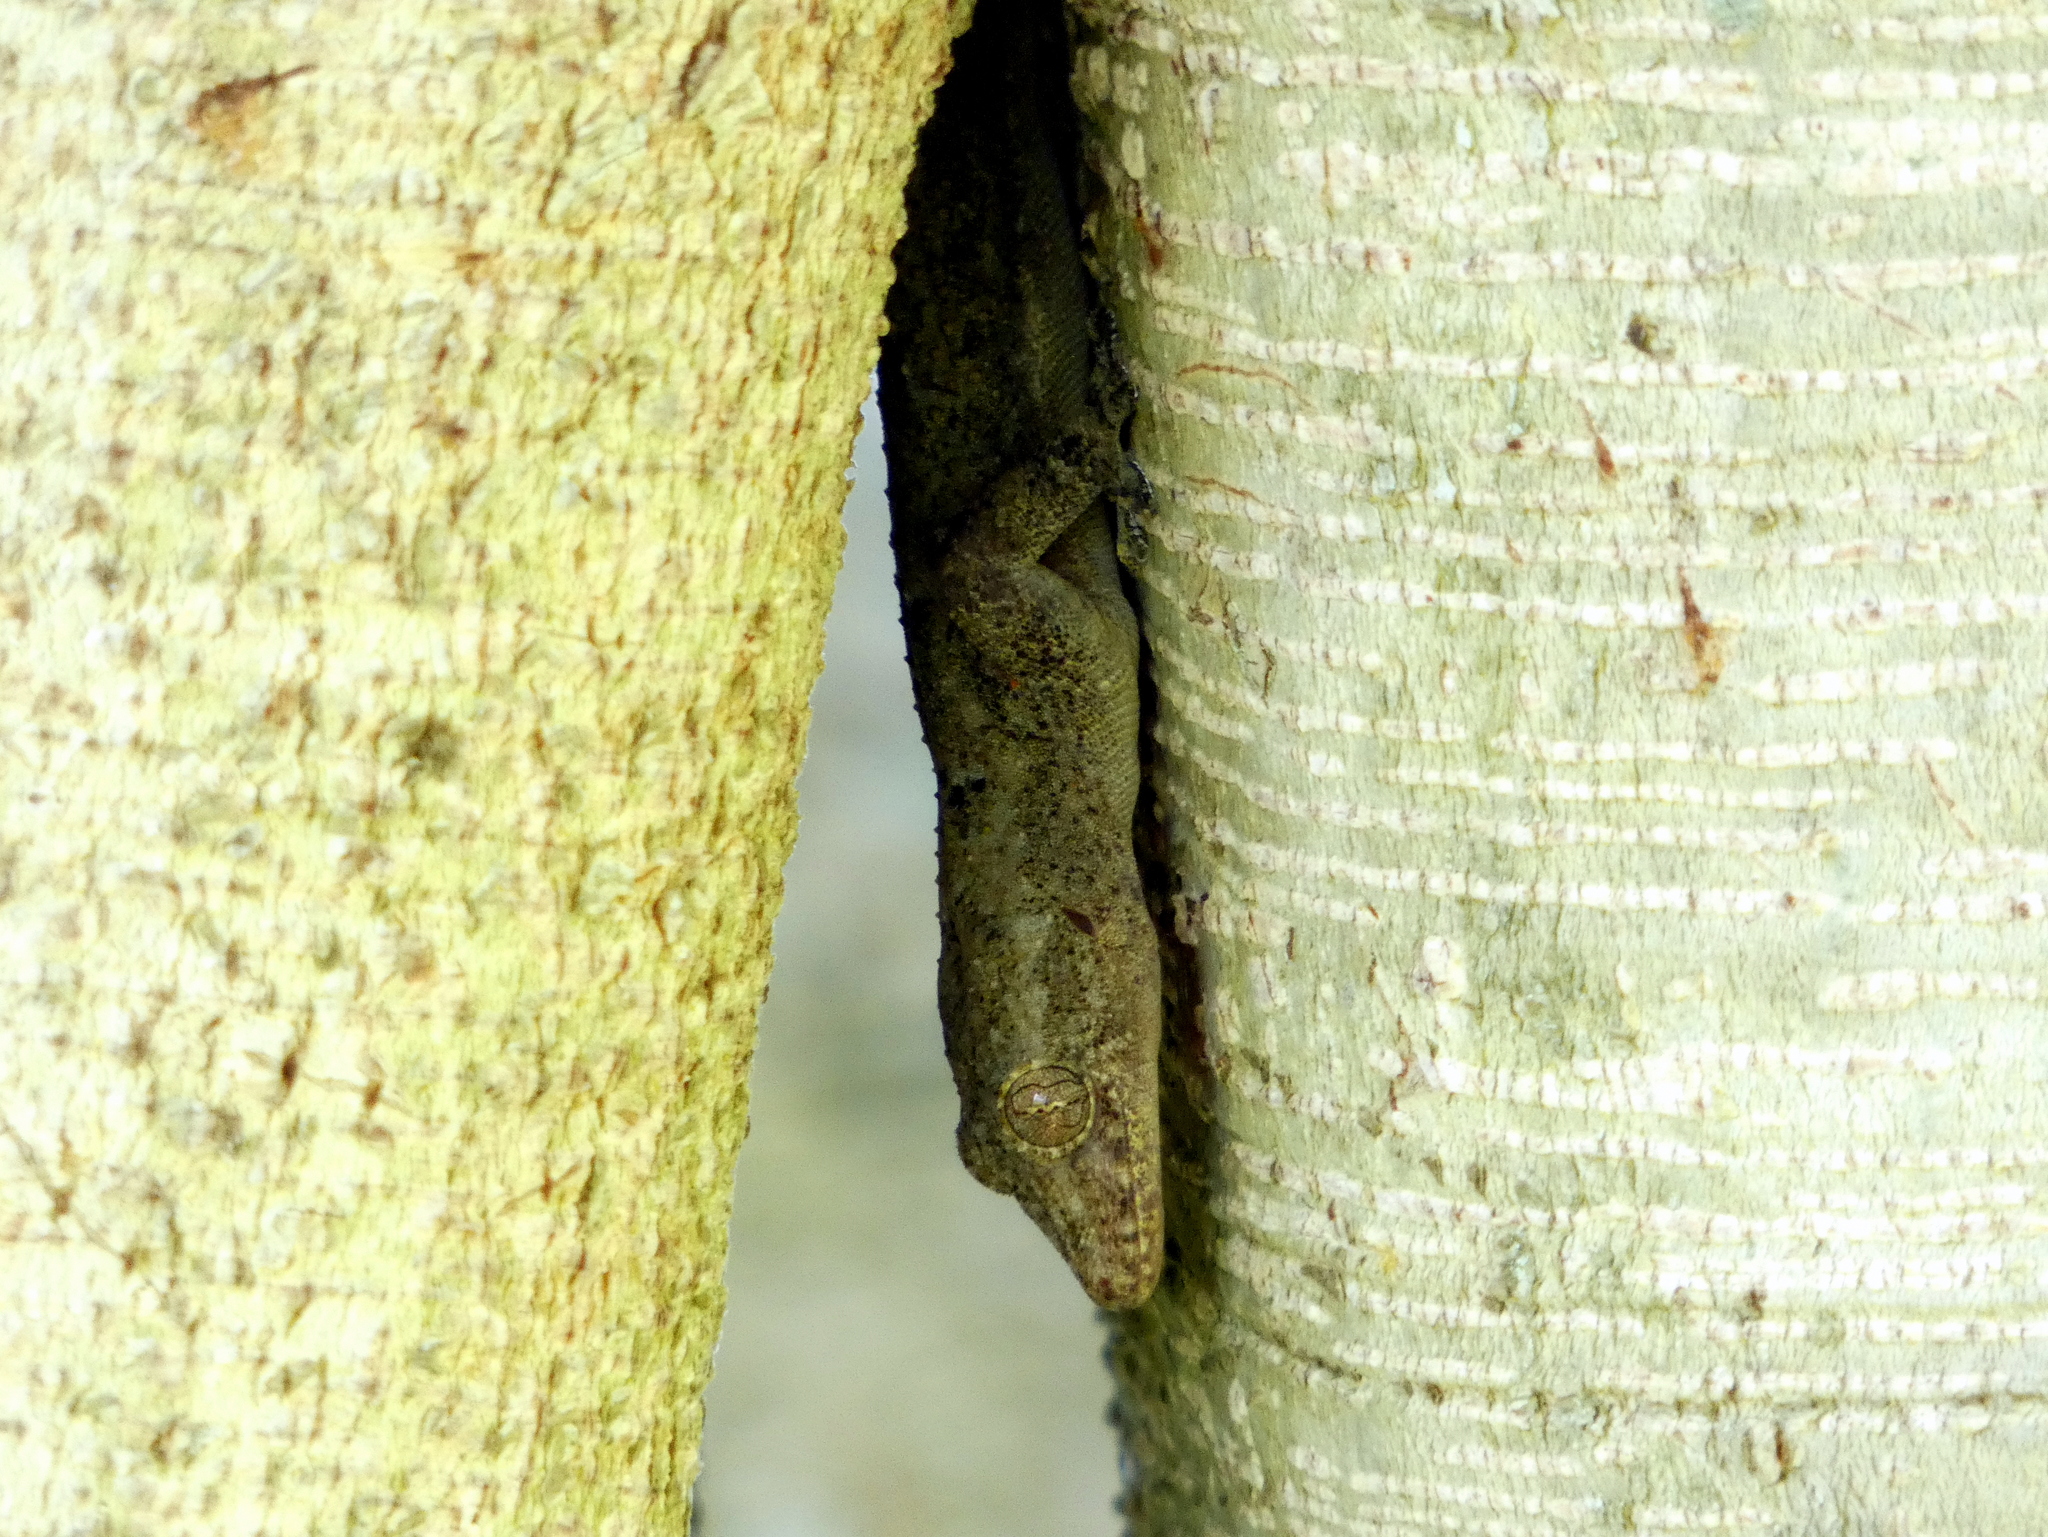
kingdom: Animalia
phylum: Chordata
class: Squamata
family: Gekkonidae
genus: Hemidactylus
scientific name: Hemidactylus mabouia
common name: House gecko
